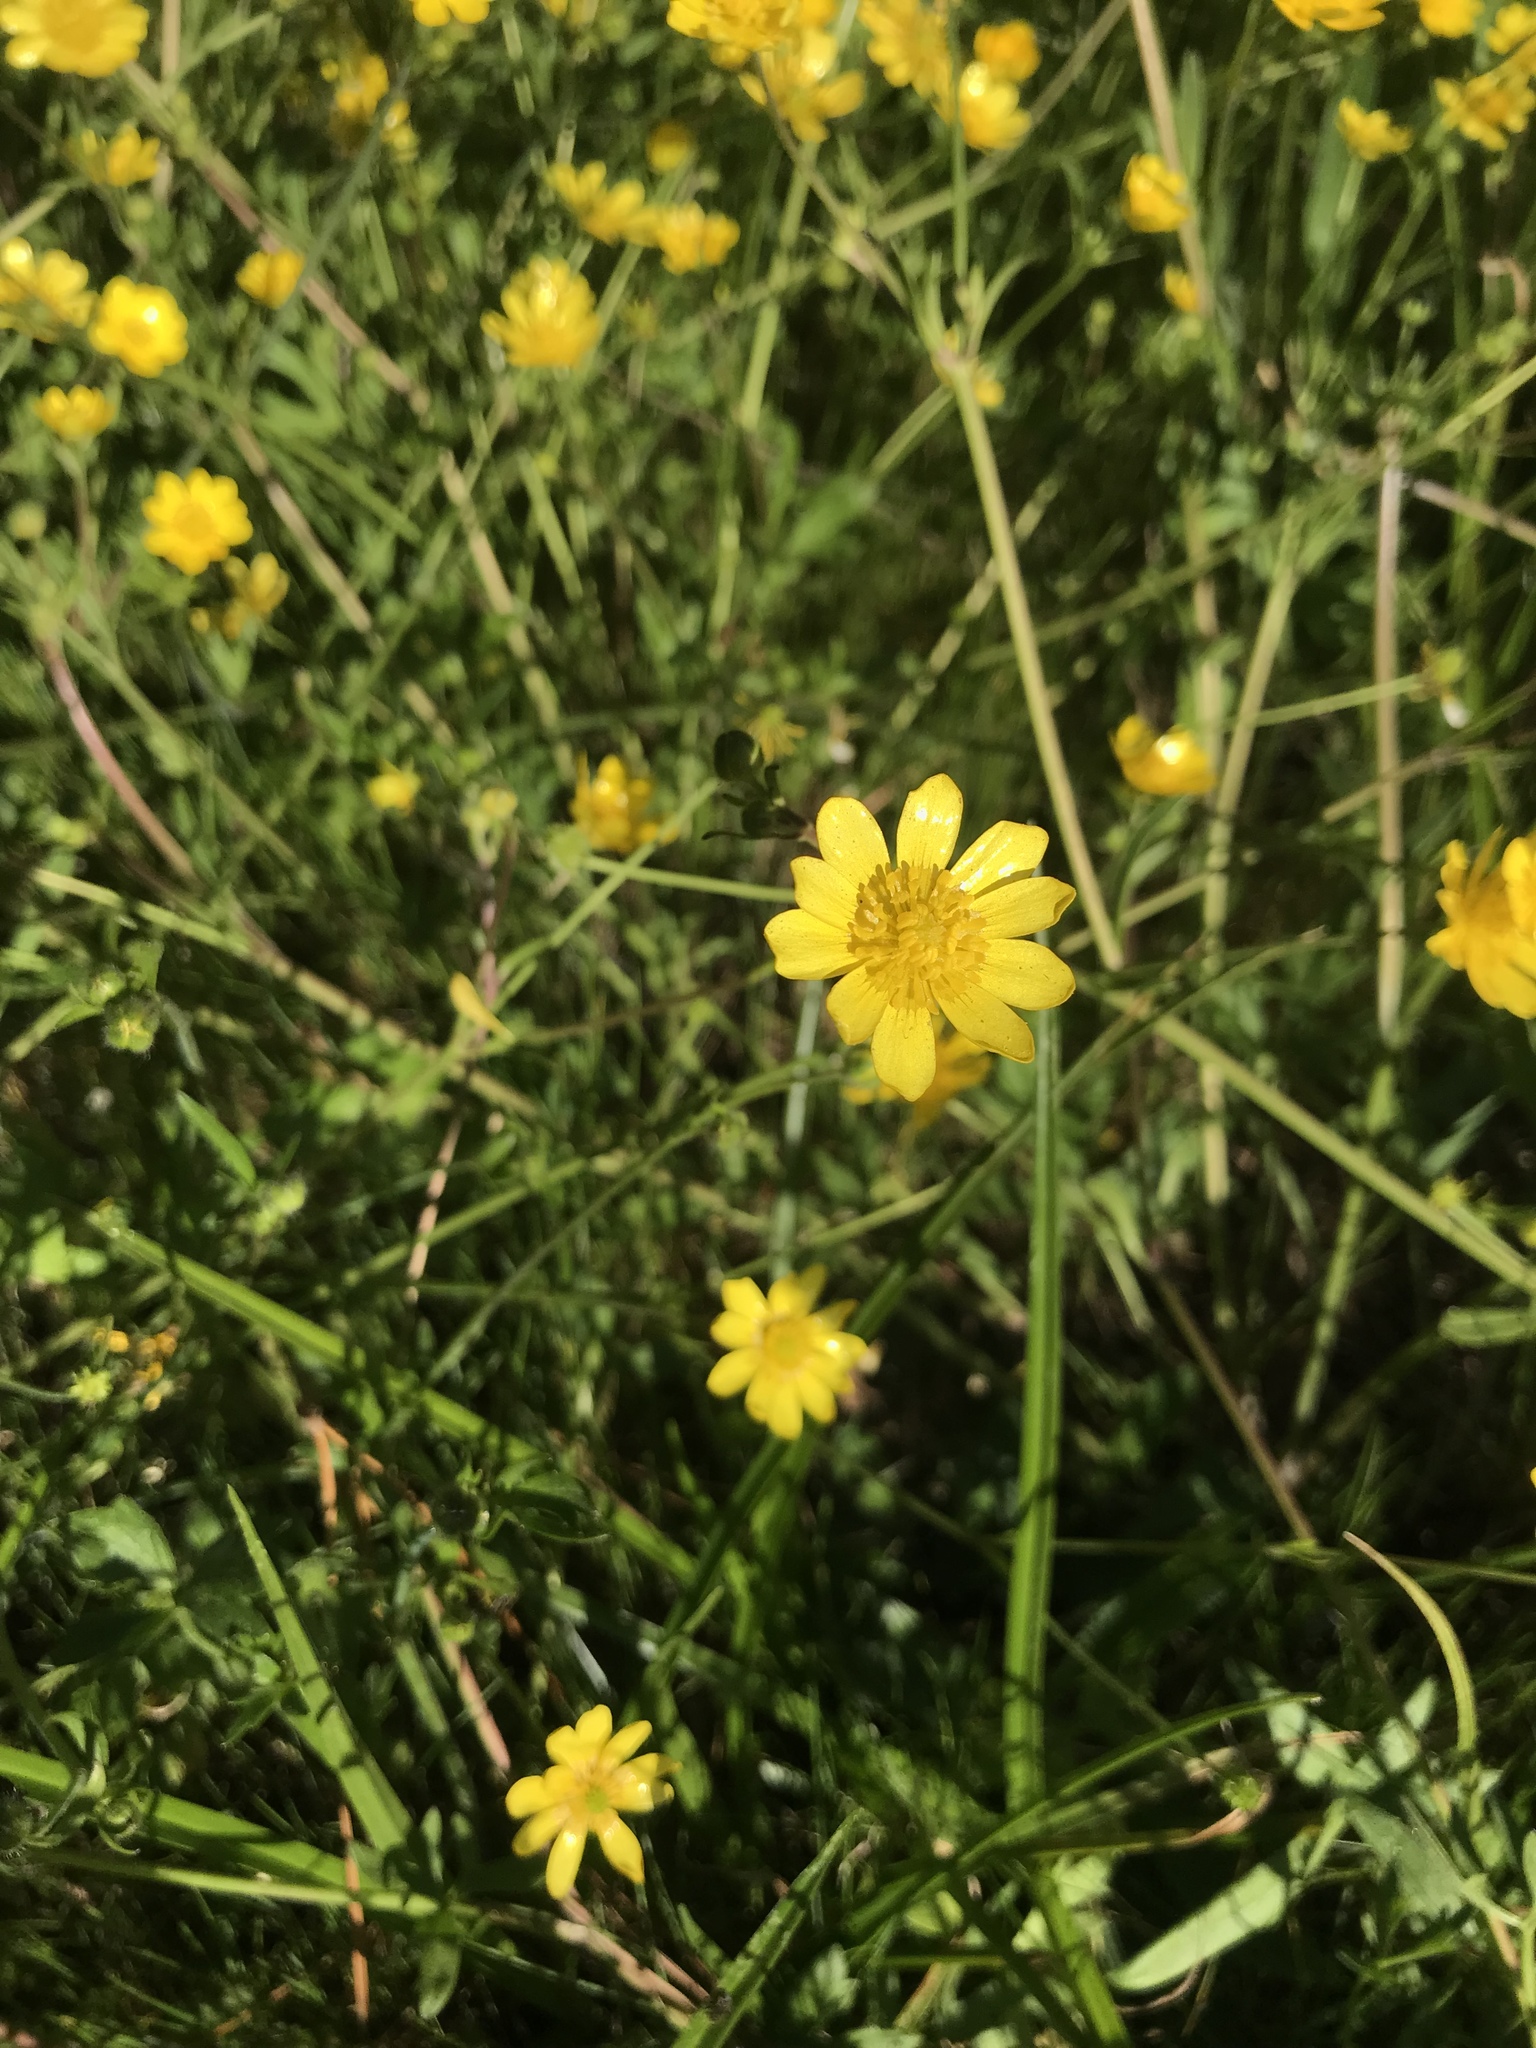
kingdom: Plantae
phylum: Tracheophyta
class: Magnoliopsida
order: Ranunculales
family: Ranunculaceae
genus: Ranunculus
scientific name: Ranunculus californicus
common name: California buttercup
